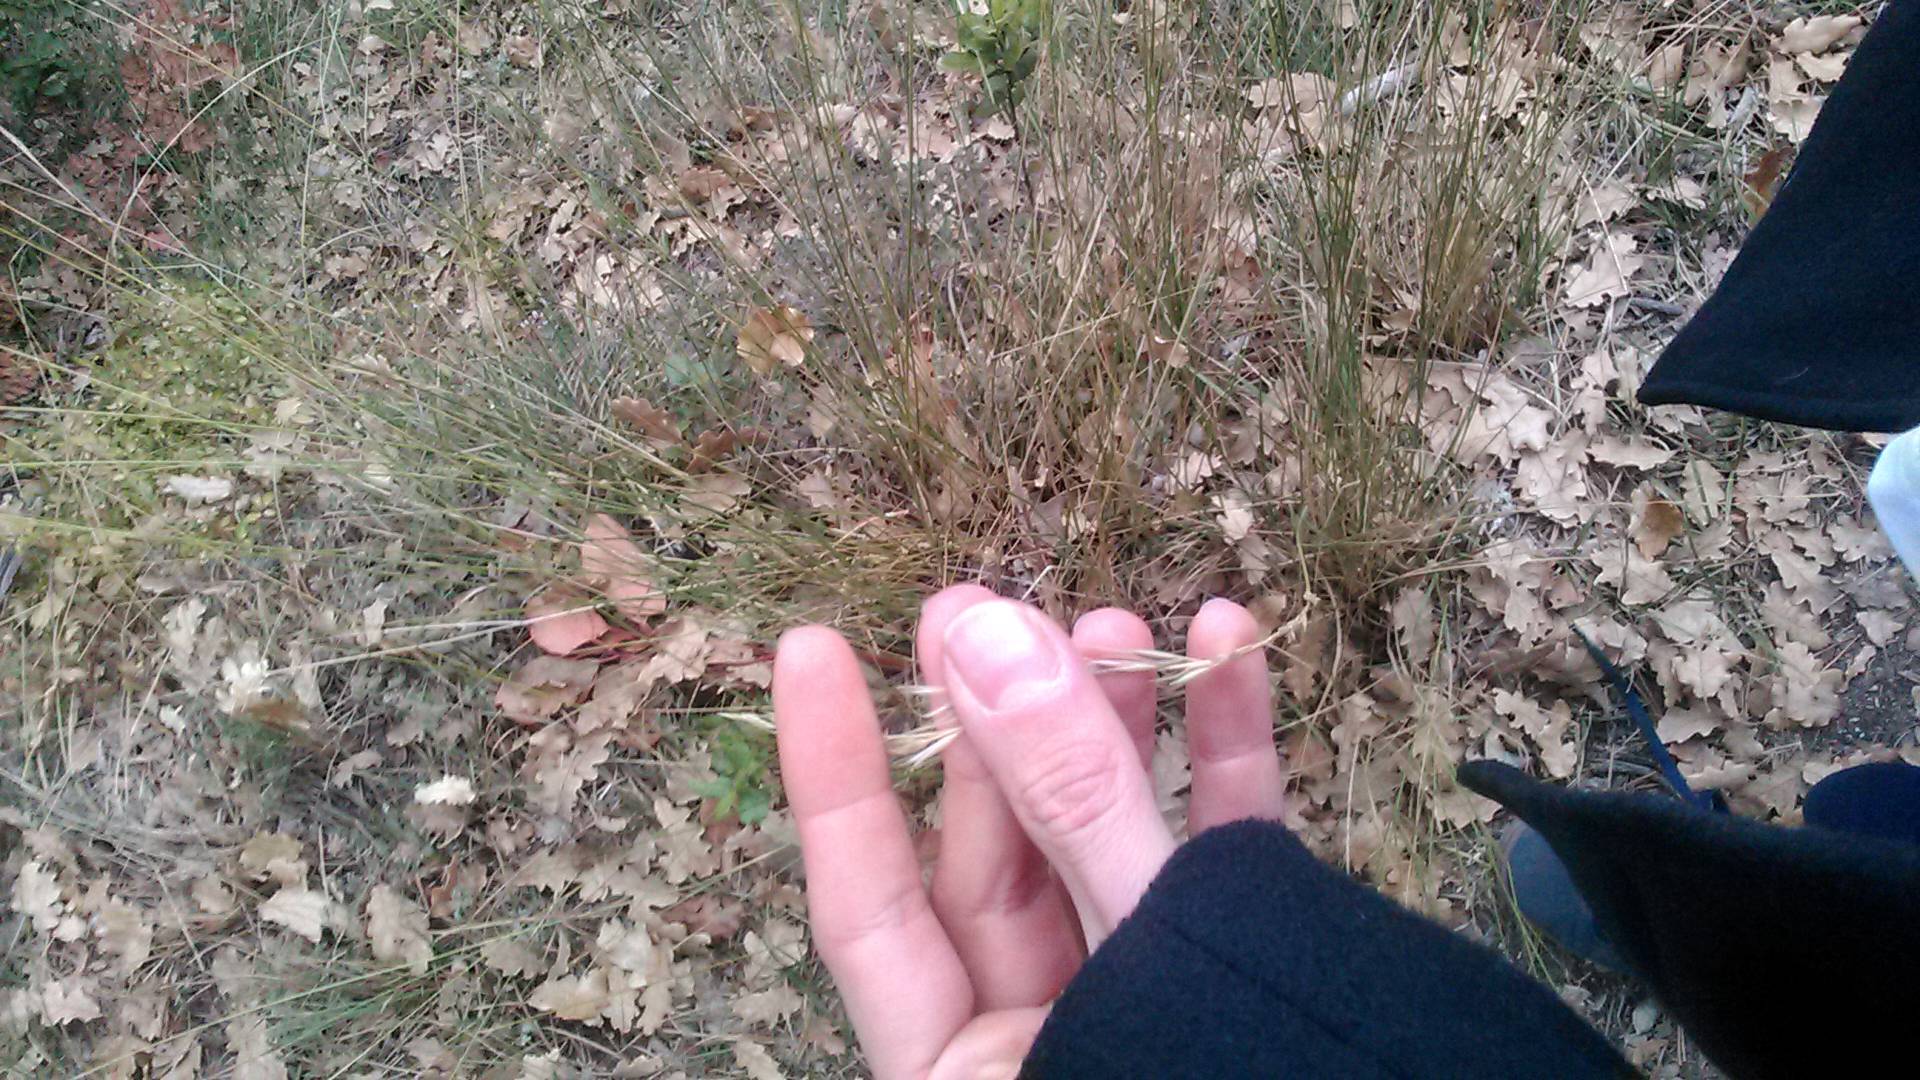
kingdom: Plantae
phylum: Tracheophyta
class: Liliopsida
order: Poales
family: Poaceae
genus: Achnatherum
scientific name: Achnatherum bromoides
